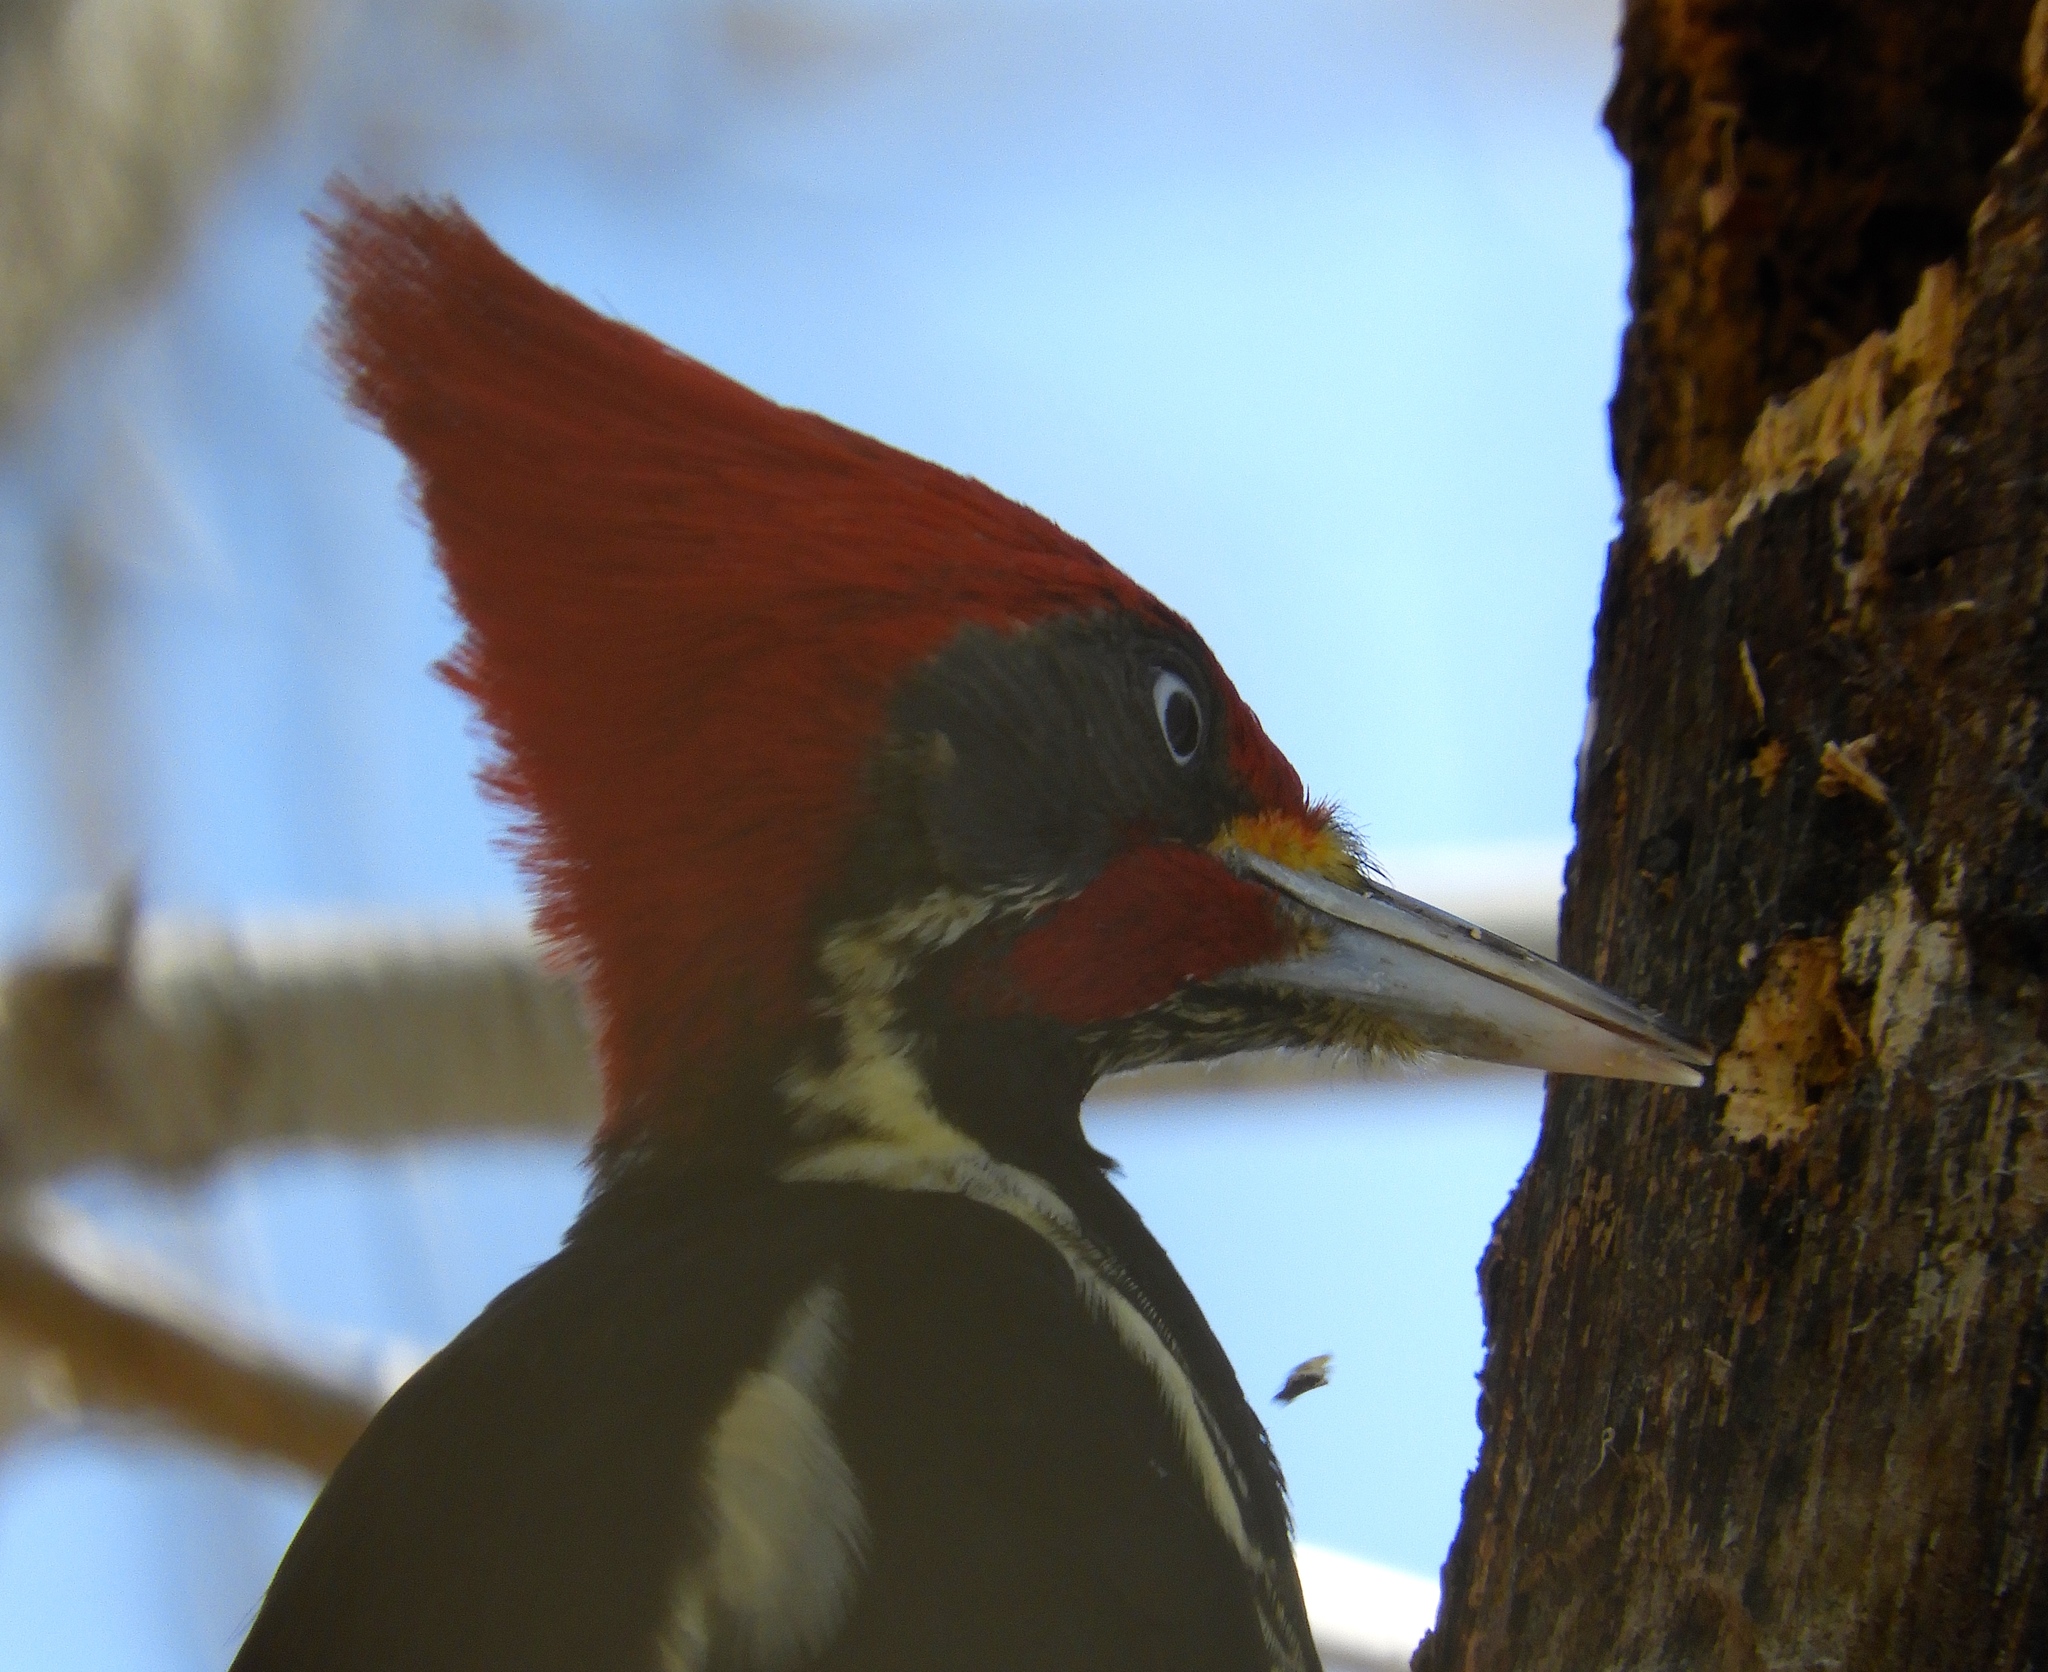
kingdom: Animalia
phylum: Chordata
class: Aves
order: Piciformes
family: Picidae
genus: Dryocopus
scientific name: Dryocopus lineatus
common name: Lineated woodpecker
